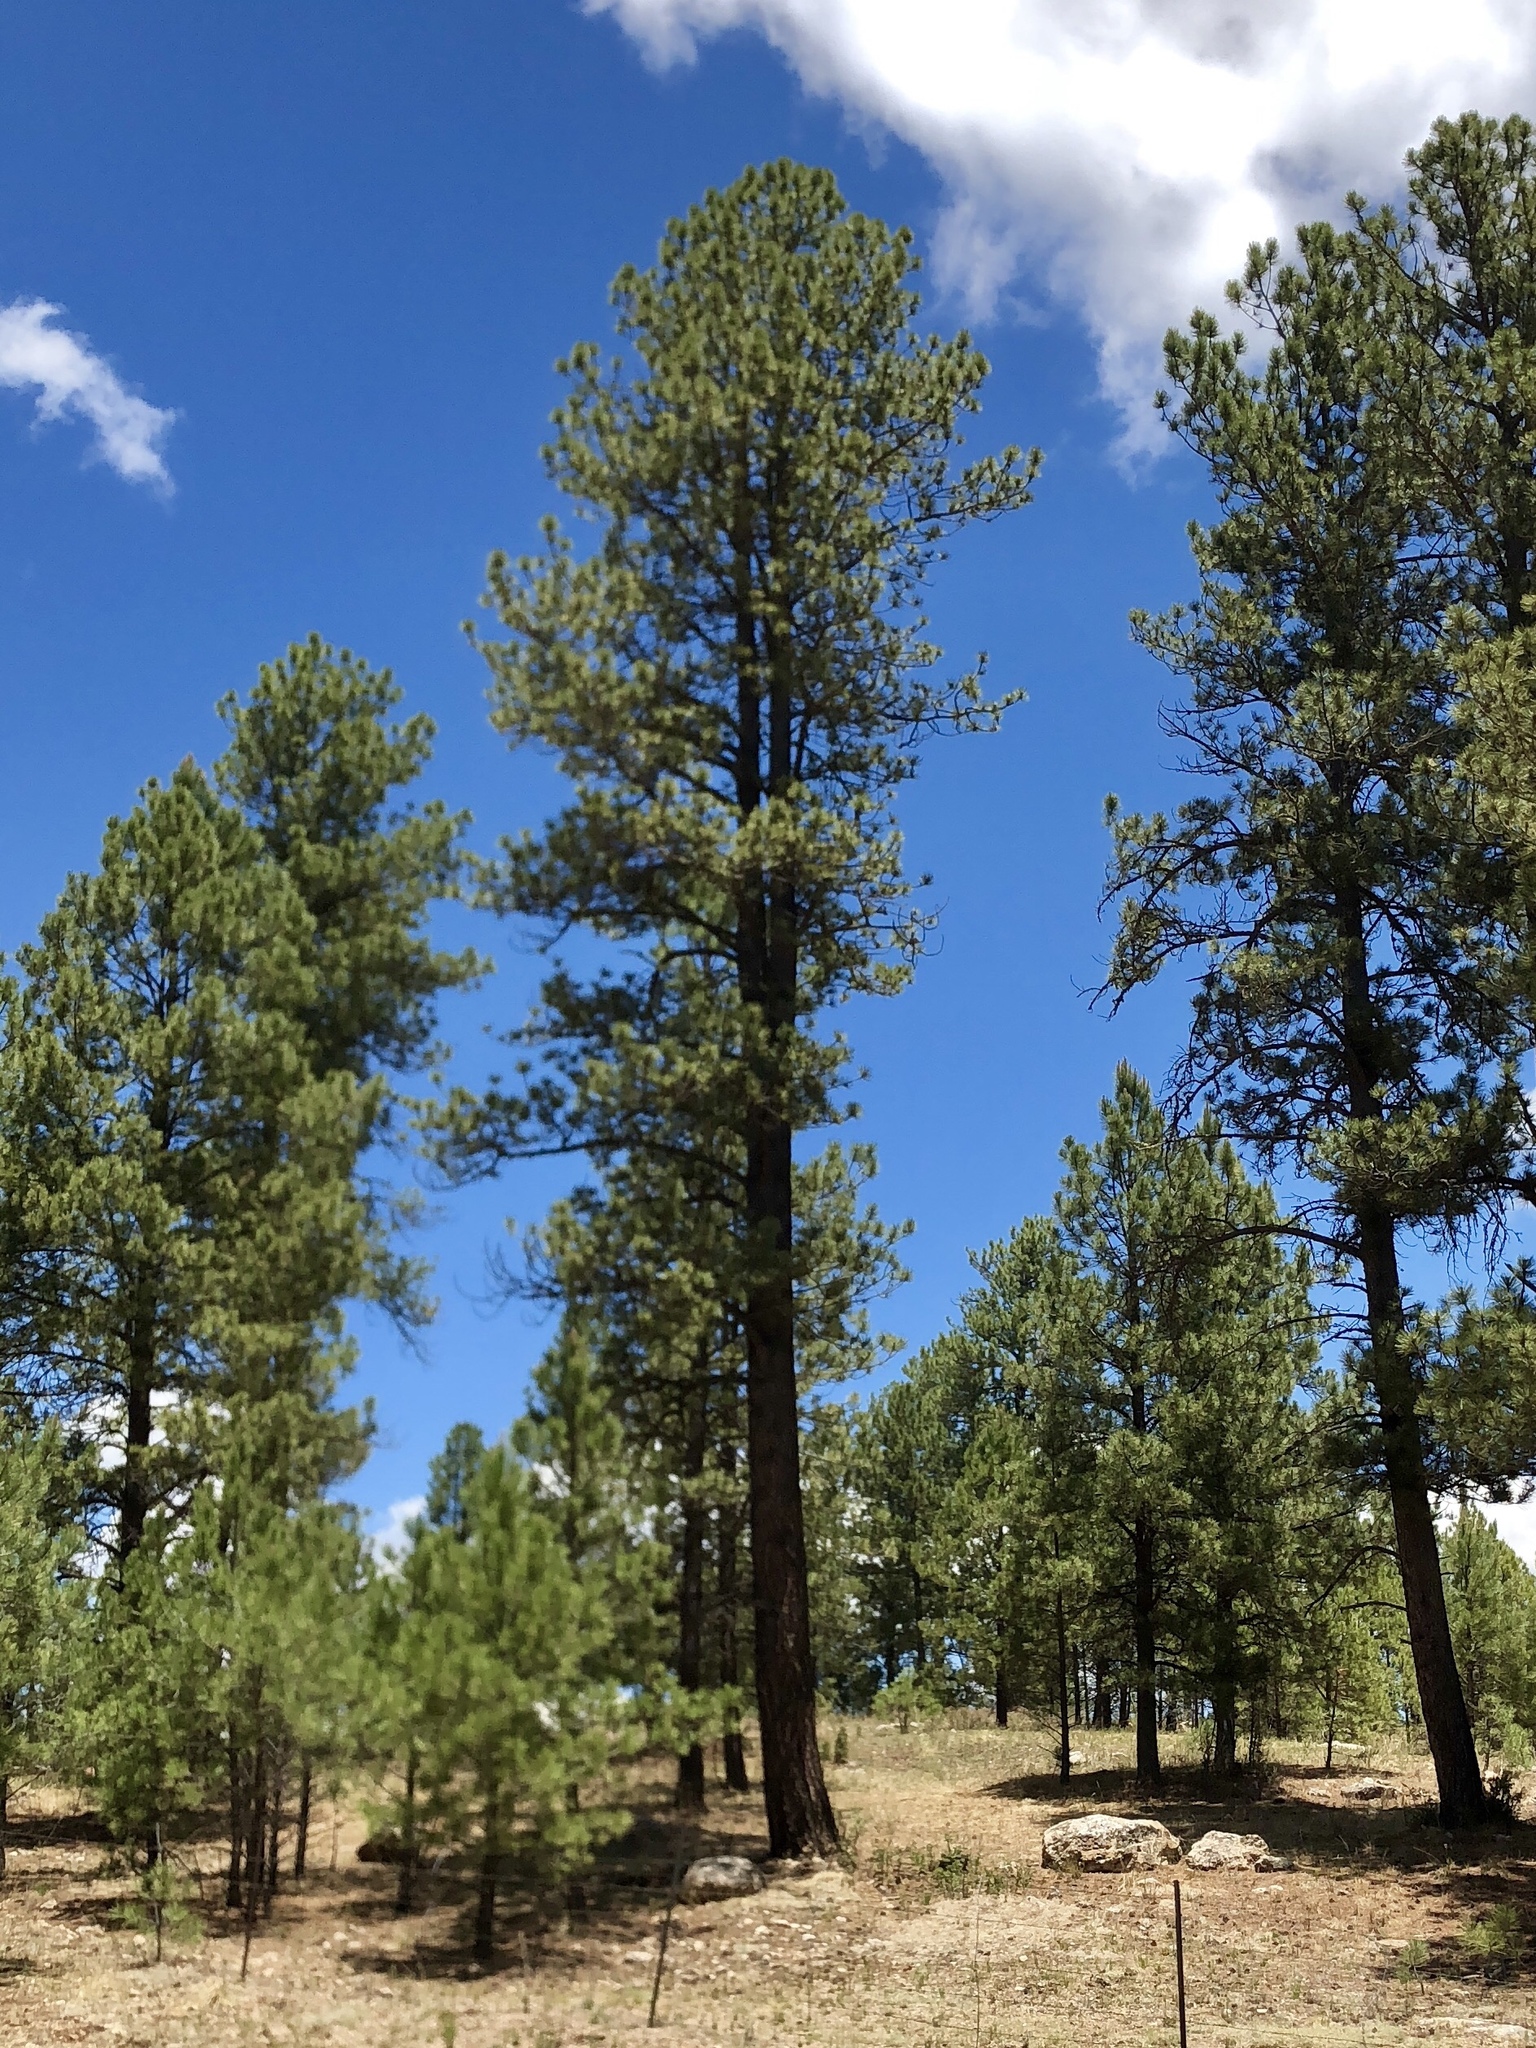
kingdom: Plantae
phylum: Tracheophyta
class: Pinopsida
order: Pinales
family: Pinaceae
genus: Pinus
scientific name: Pinus ponderosa
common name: Western yellow-pine
